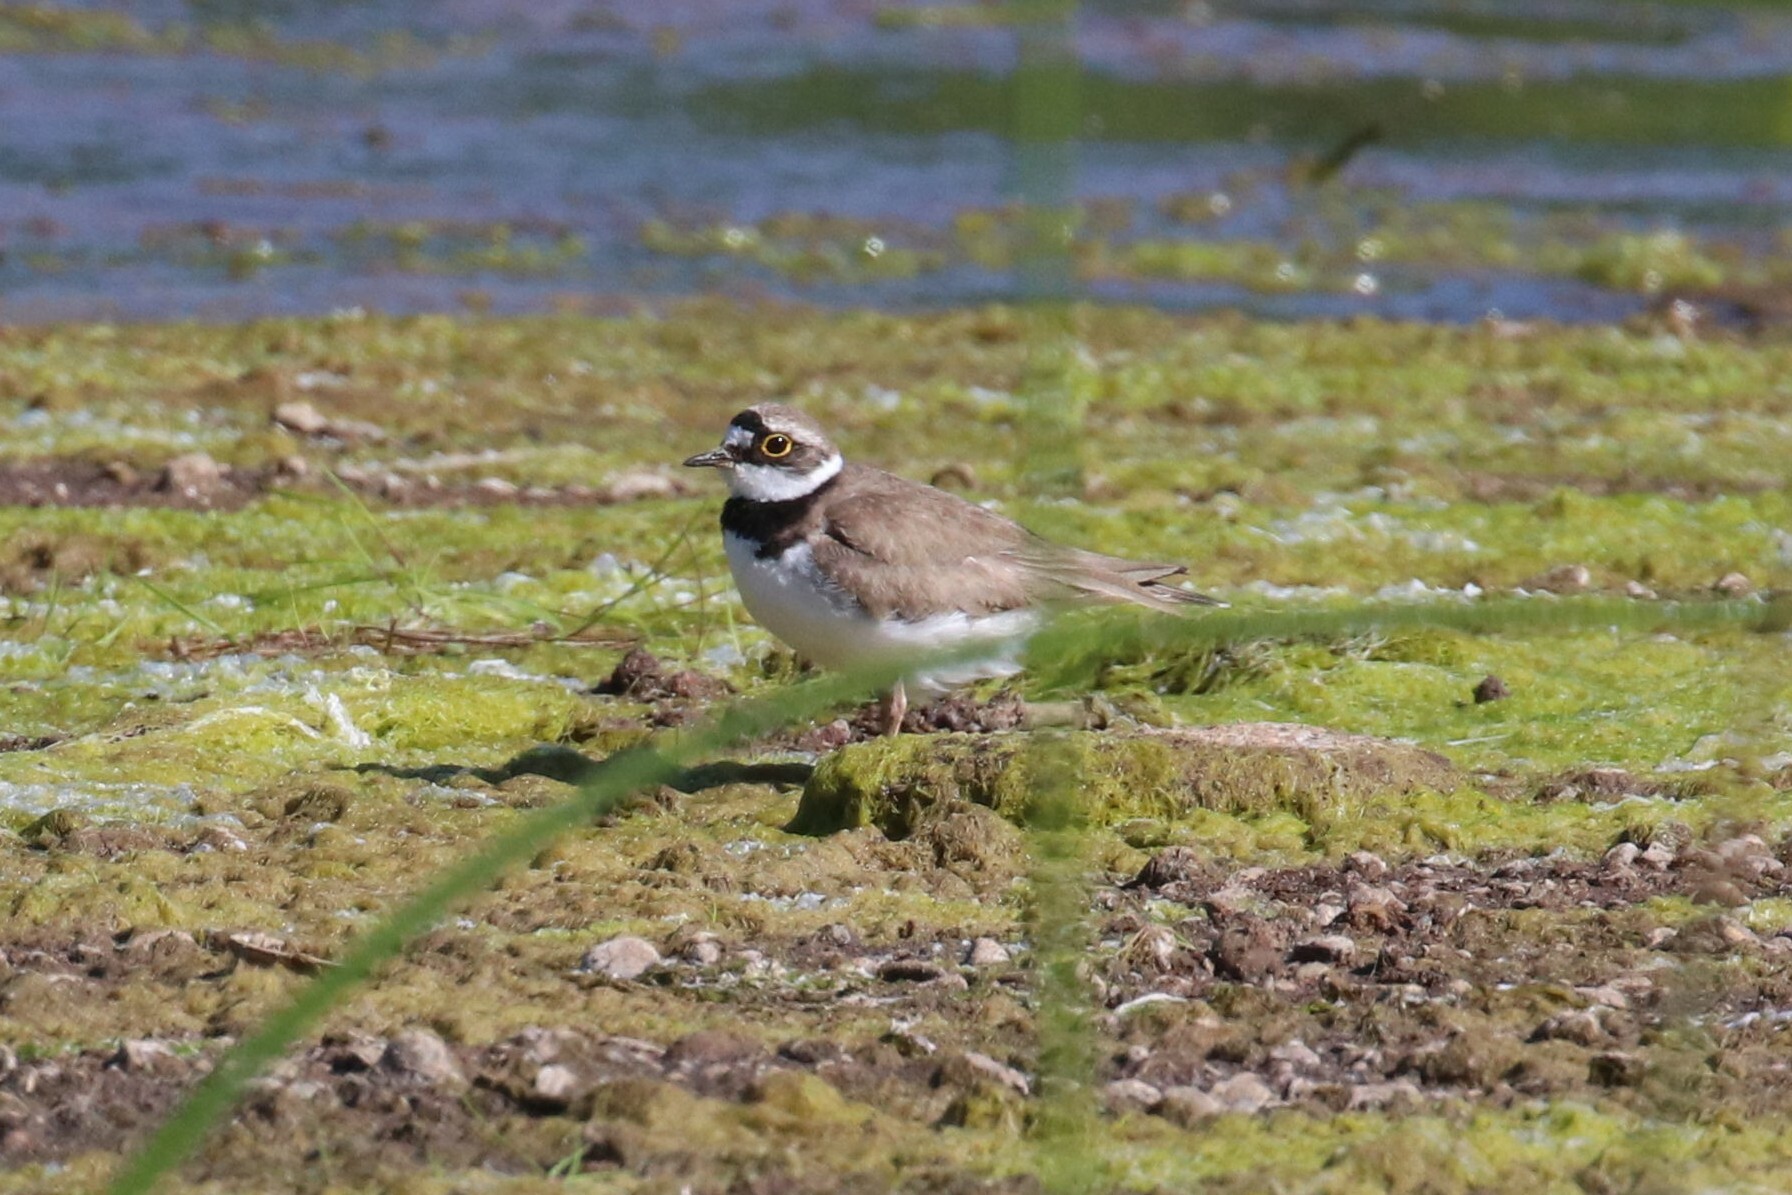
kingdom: Animalia
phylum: Chordata
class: Aves
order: Charadriiformes
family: Charadriidae
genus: Charadrius
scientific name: Charadrius dubius
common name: Little ringed plover
